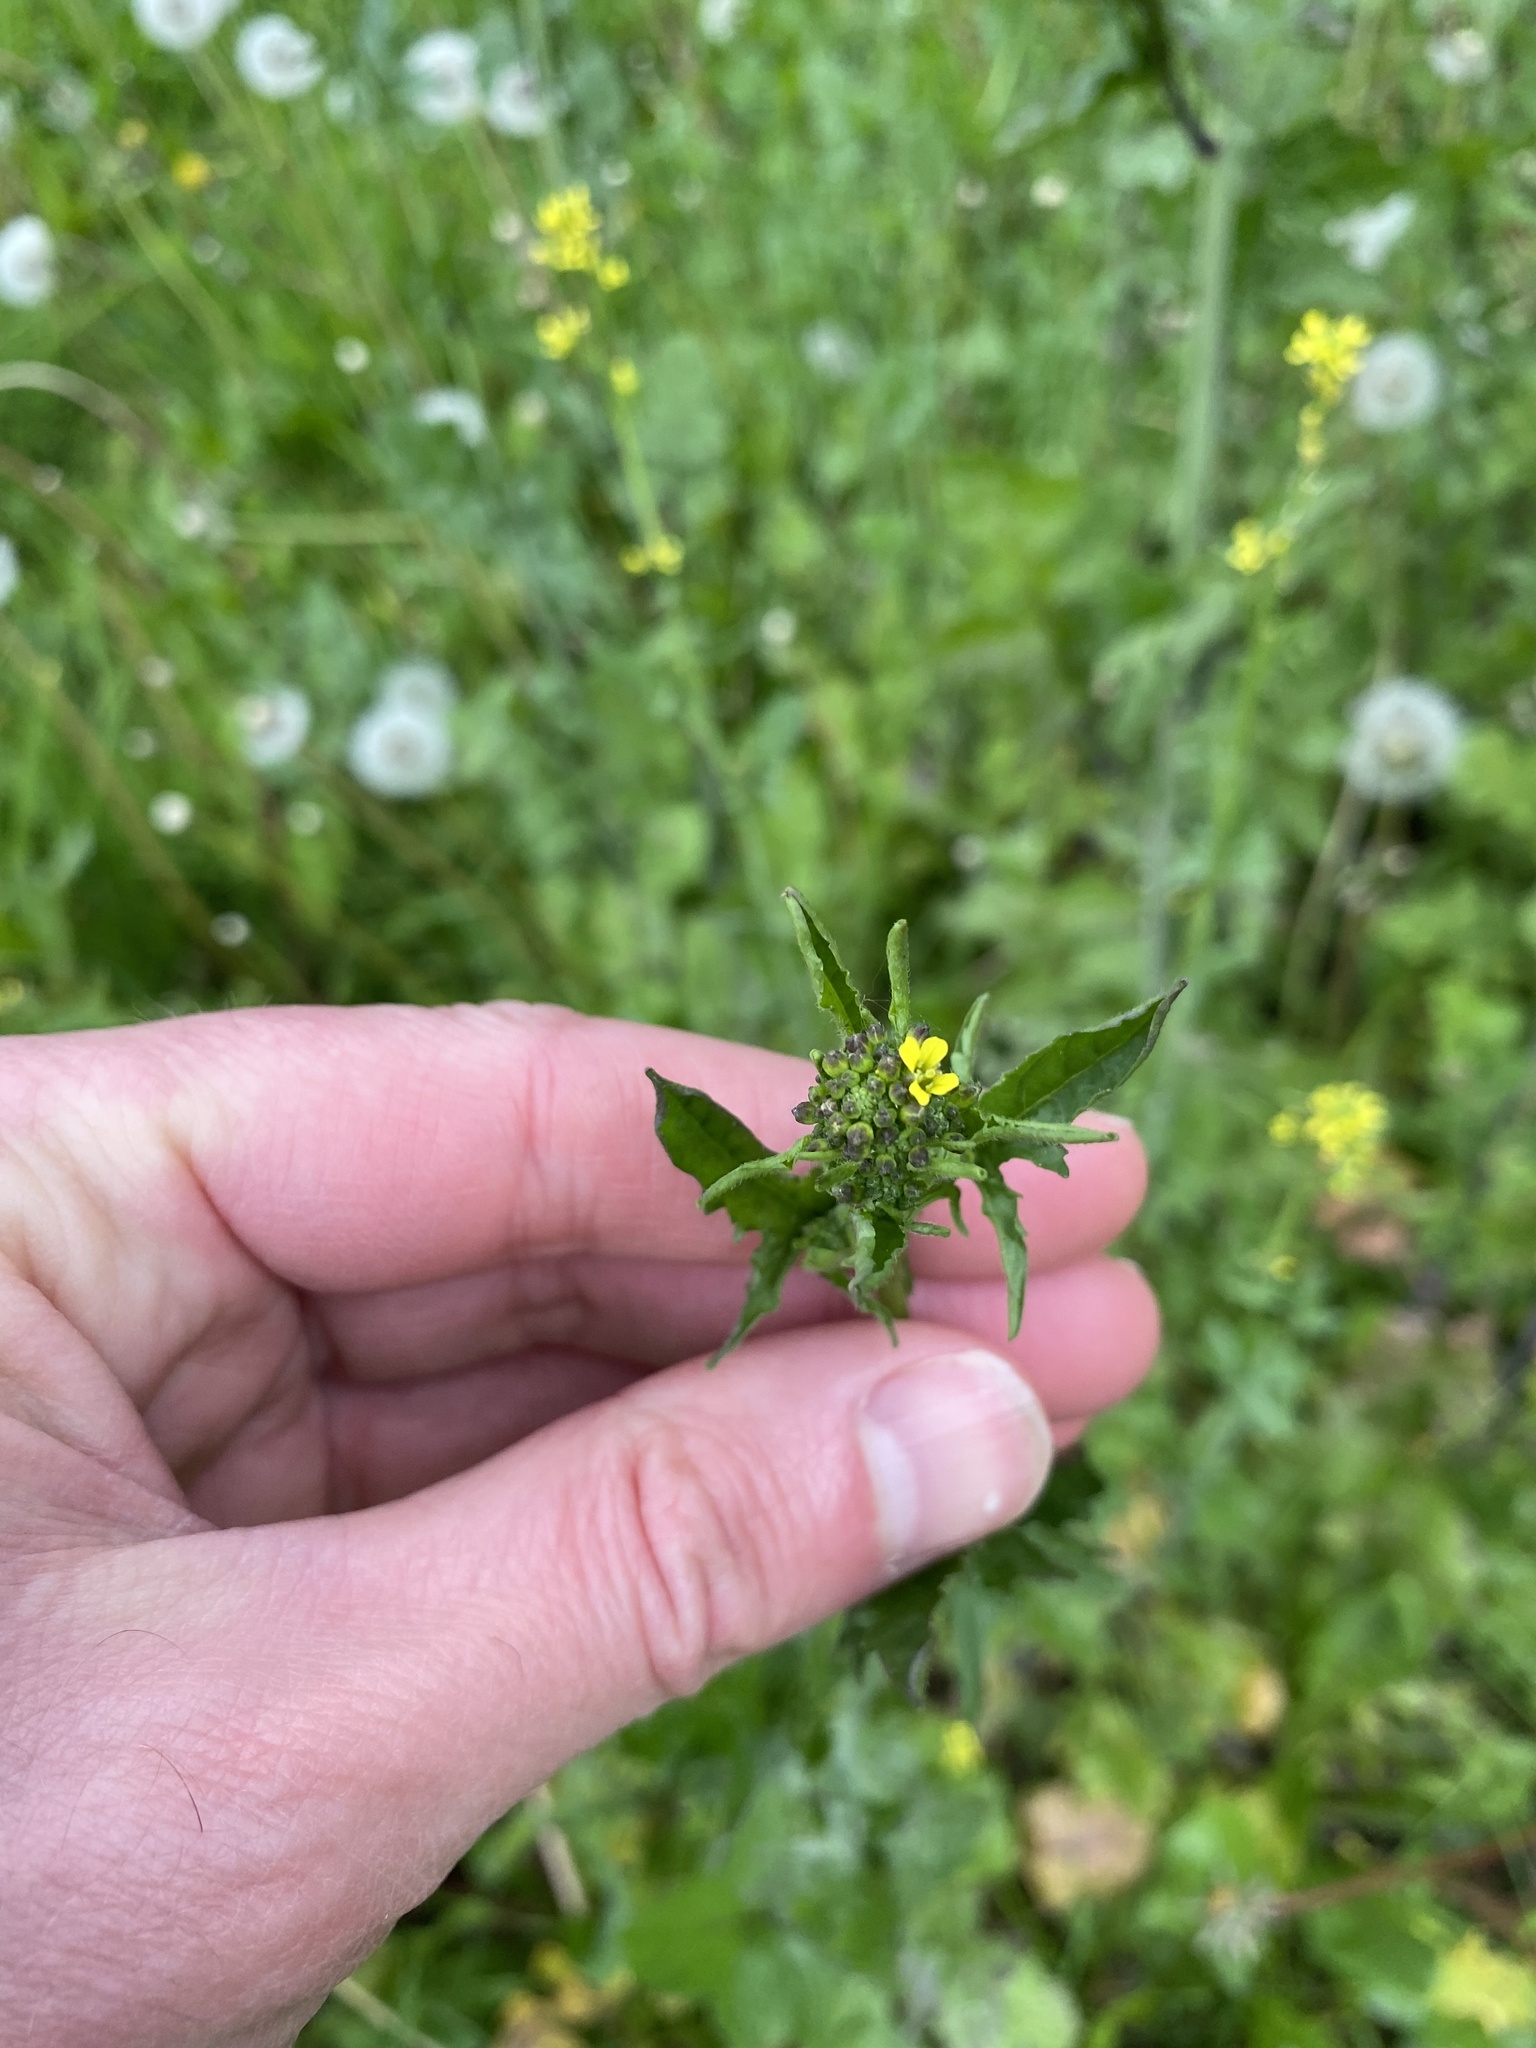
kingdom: Plantae
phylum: Tracheophyta
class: Magnoliopsida
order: Brassicales
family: Brassicaceae
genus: Sisymbrium
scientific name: Sisymbrium officinale
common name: Hedge mustard
